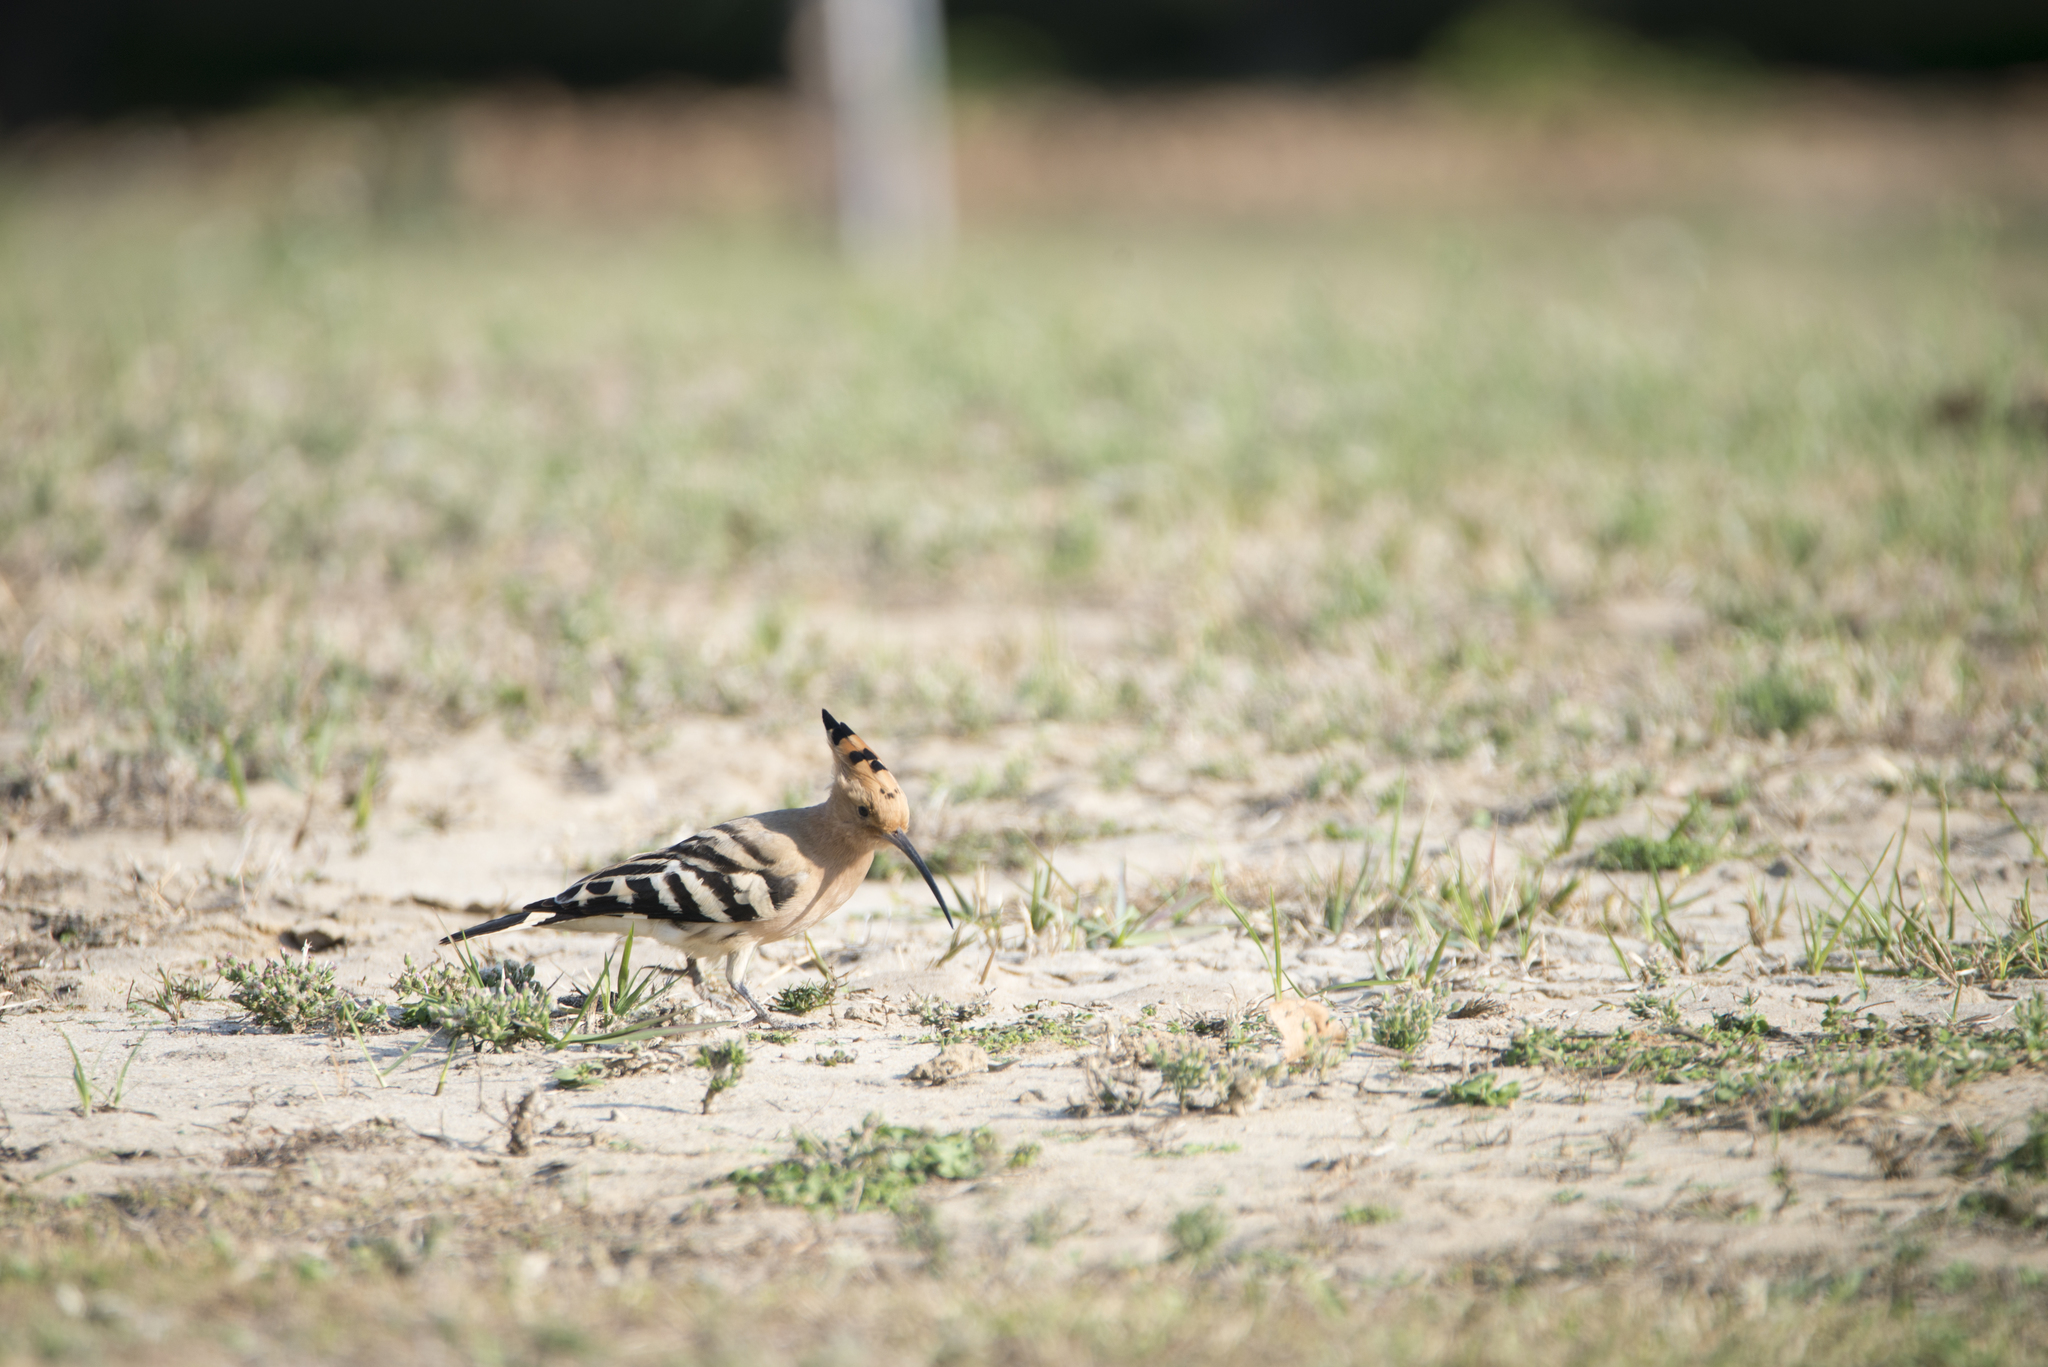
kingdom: Animalia
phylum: Chordata
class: Aves
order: Bucerotiformes
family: Upupidae
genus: Upupa
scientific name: Upupa epops
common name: Eurasian hoopoe
